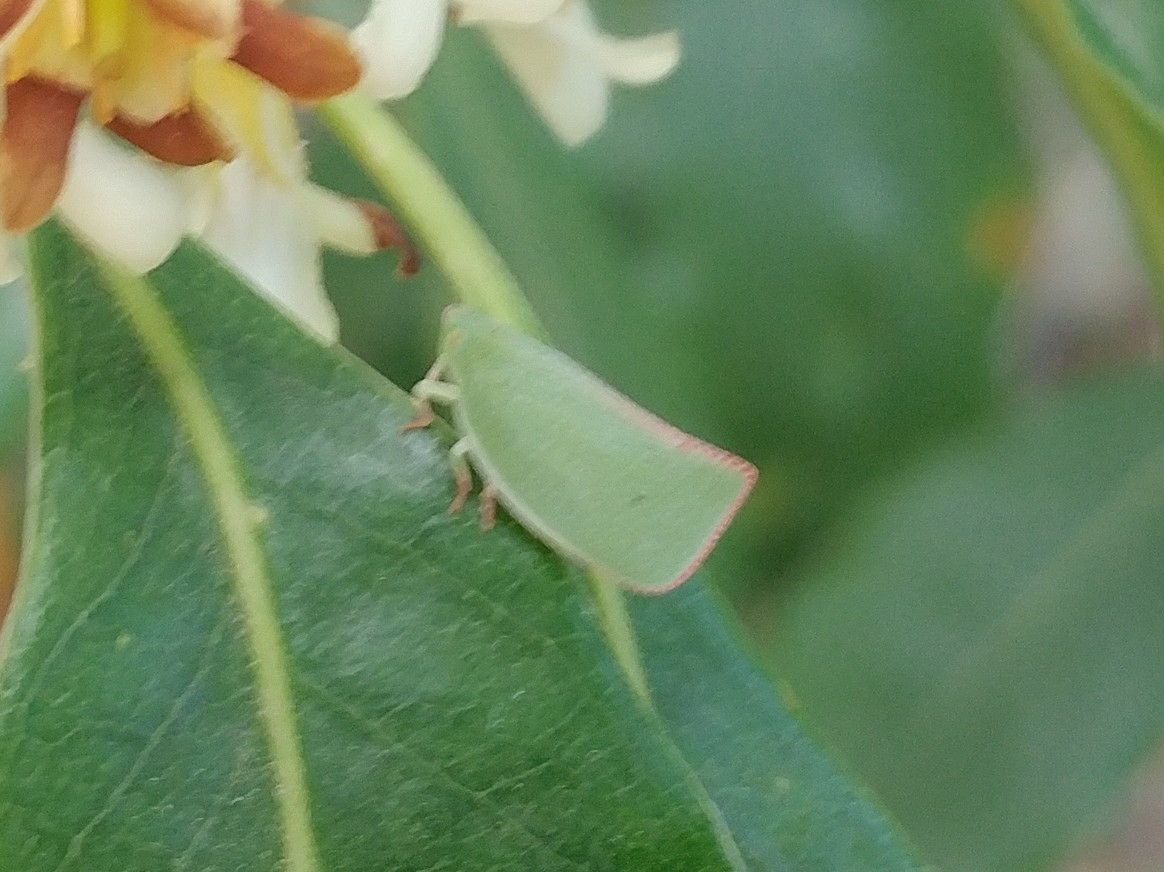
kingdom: Animalia
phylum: Arthropoda
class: Insecta
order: Hemiptera
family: Flatidae
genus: Siphanta
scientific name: Siphanta acuta
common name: Torpedo bug
